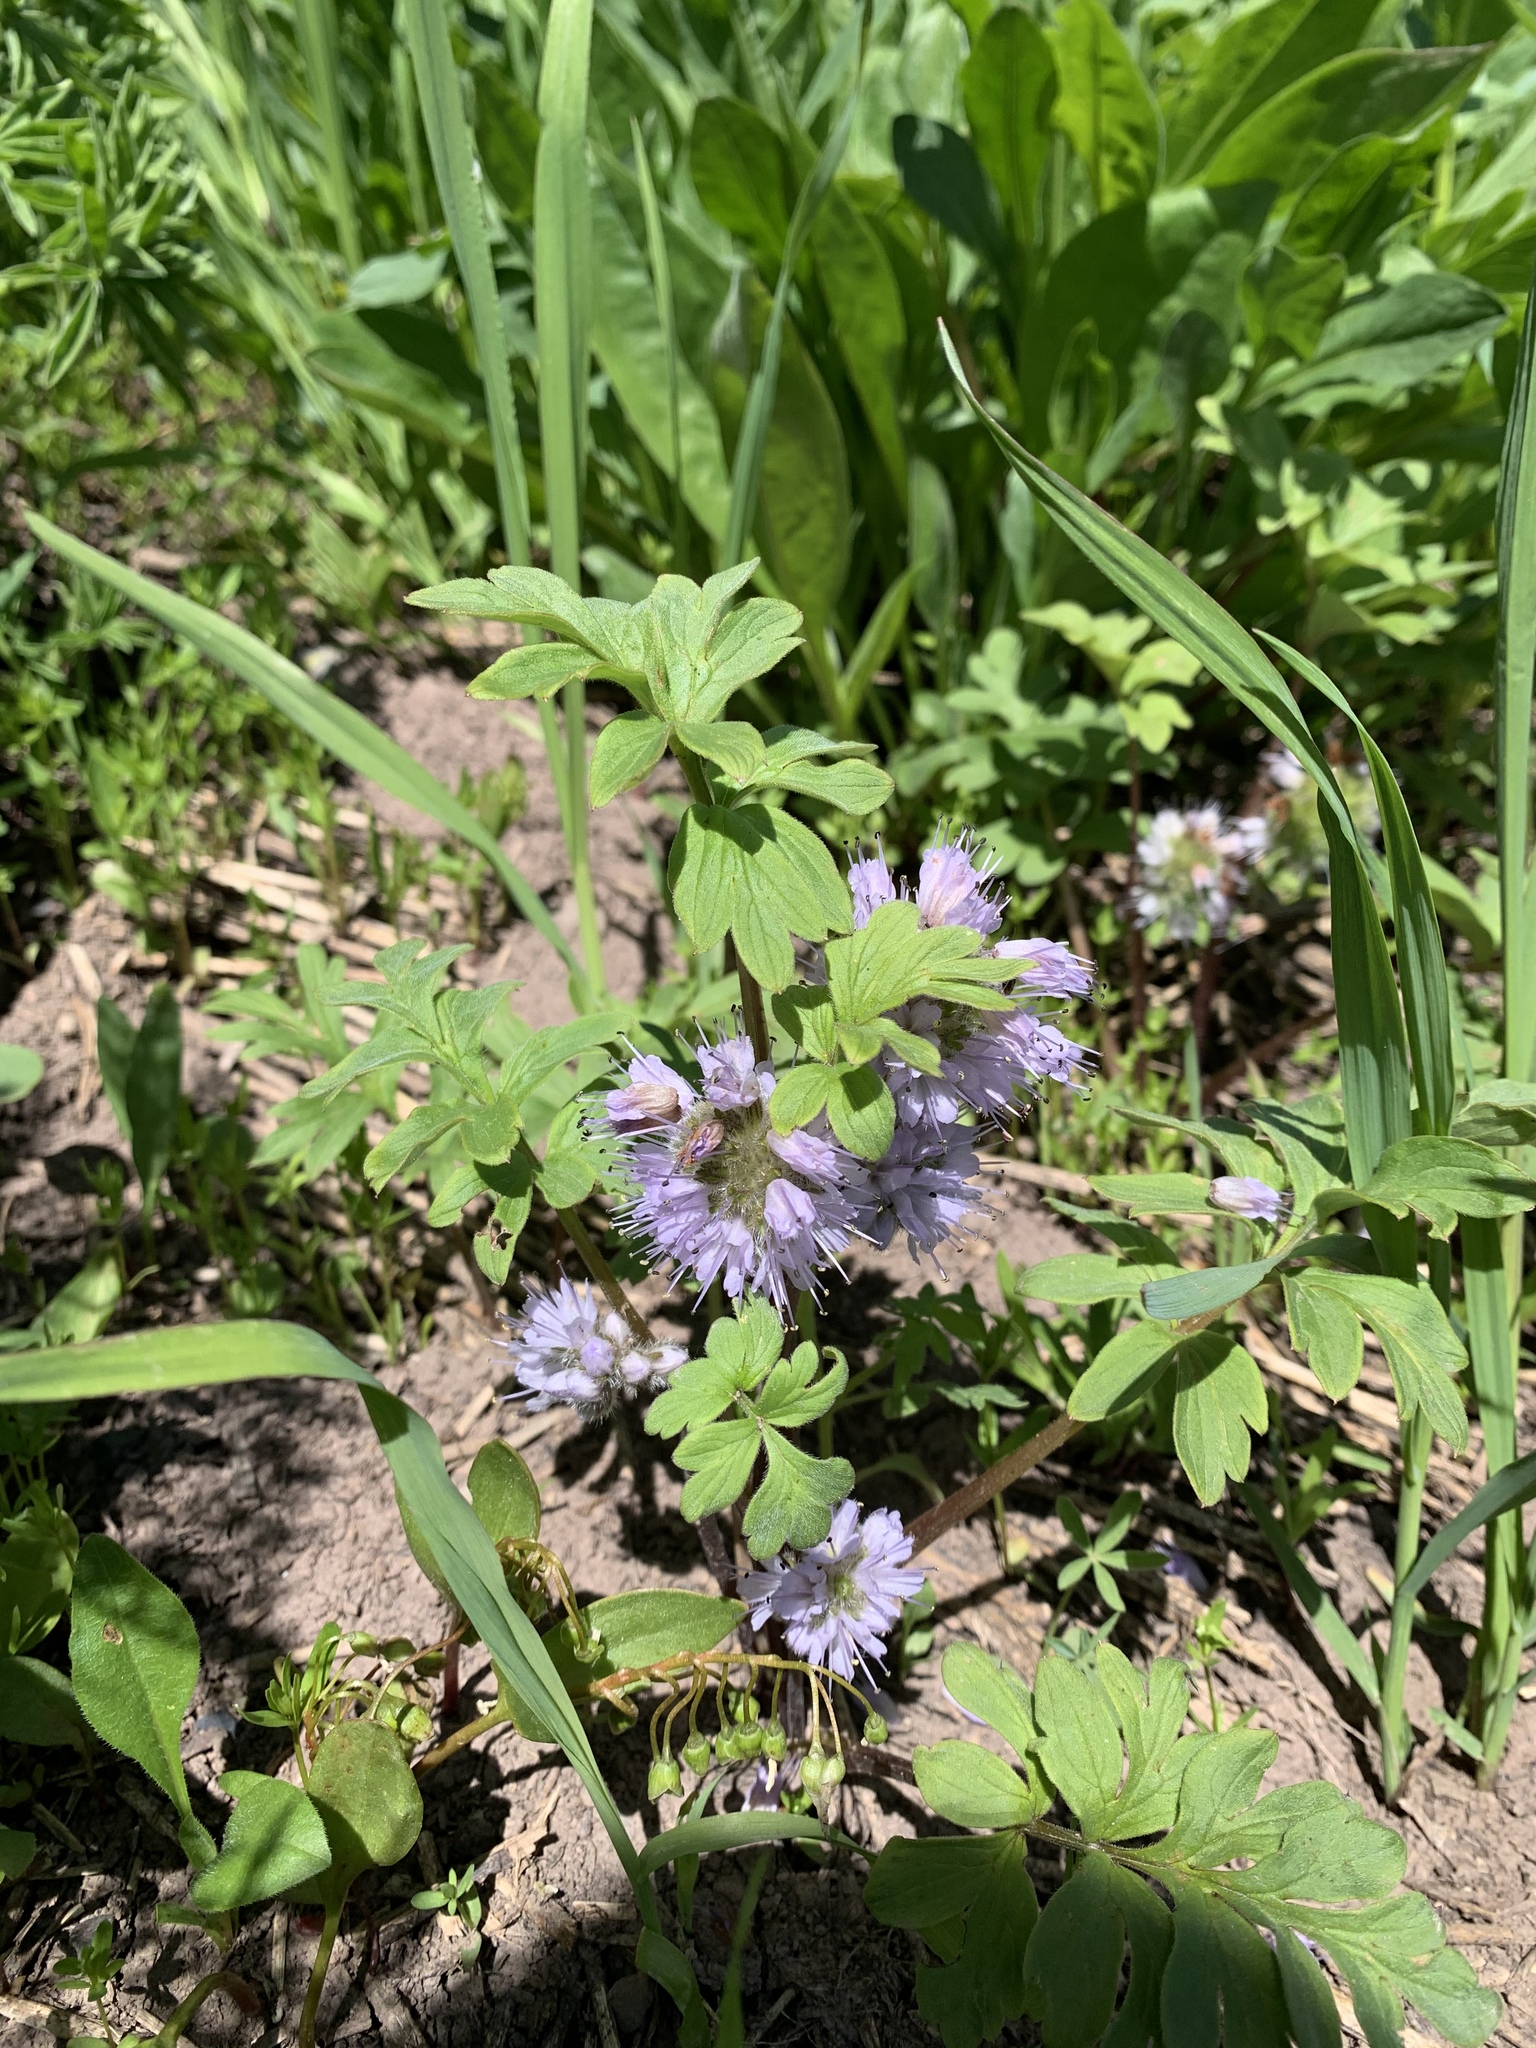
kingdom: Plantae
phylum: Tracheophyta
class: Magnoliopsida
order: Boraginales
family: Hydrophyllaceae
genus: Hydrophyllum
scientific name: Hydrophyllum capitatum
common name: Woollen-breeches
